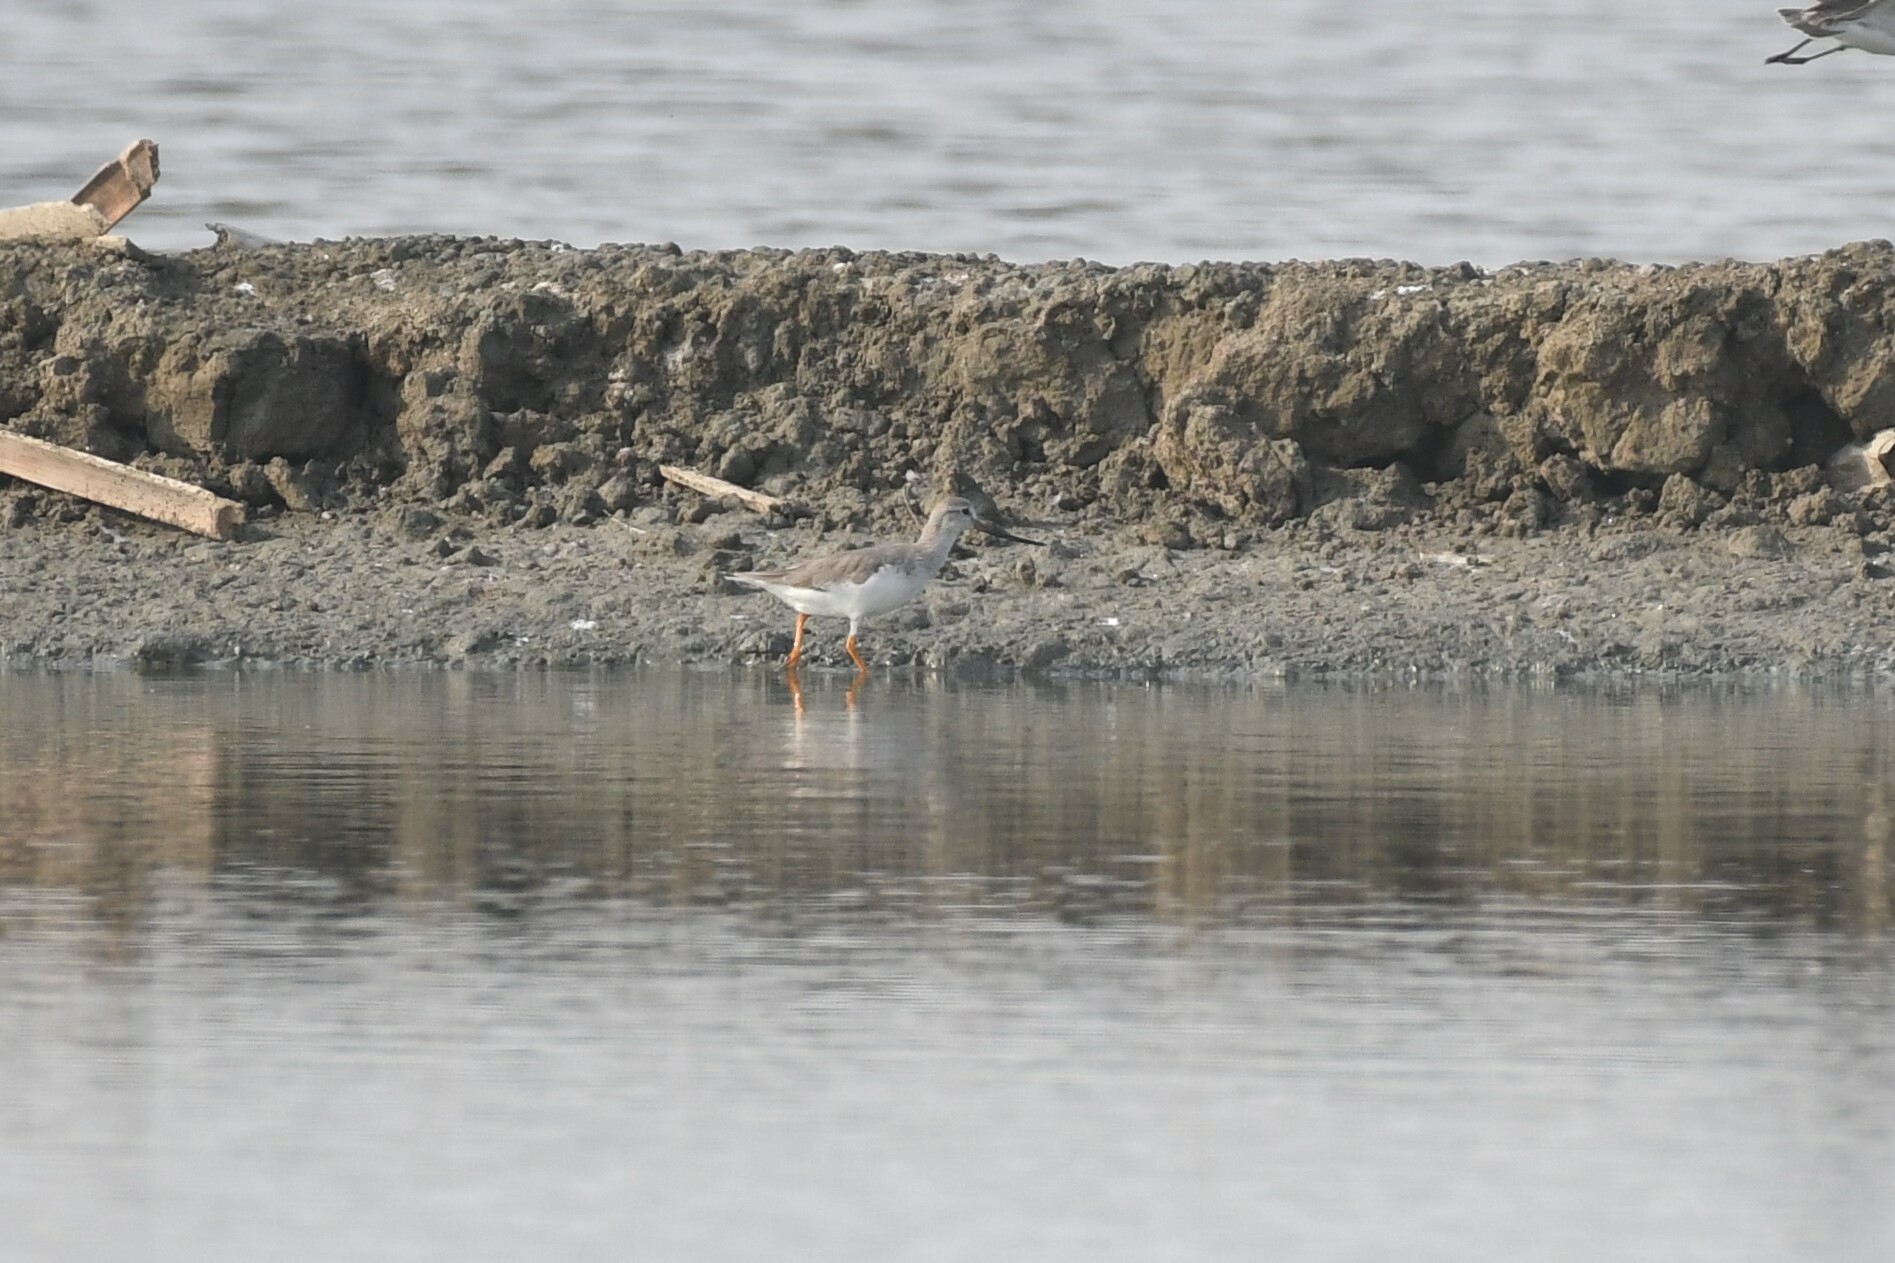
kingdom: Animalia
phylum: Chordata
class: Aves
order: Charadriiformes
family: Scolopacidae
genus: Xenus
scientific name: Xenus cinereus
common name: Terek sandpiper
